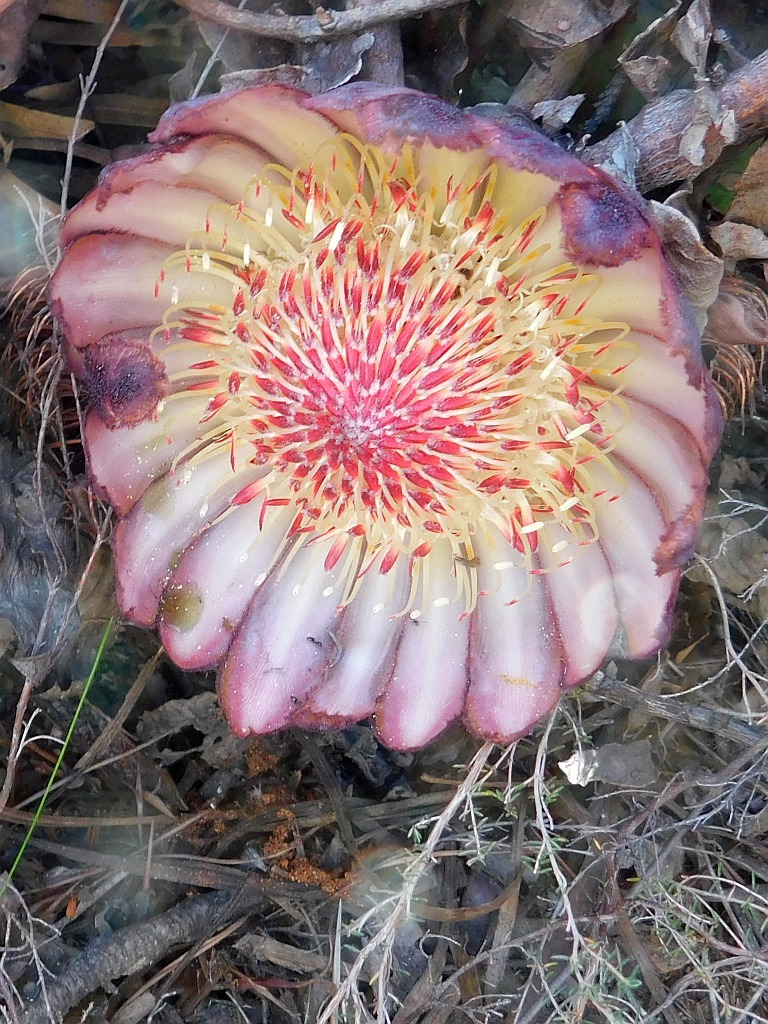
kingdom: Plantae
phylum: Tracheophyta
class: Magnoliopsida
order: Proteales
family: Proteaceae
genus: Protea
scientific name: Protea amplexicaulis
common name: Clasping-leaf sugarbush
